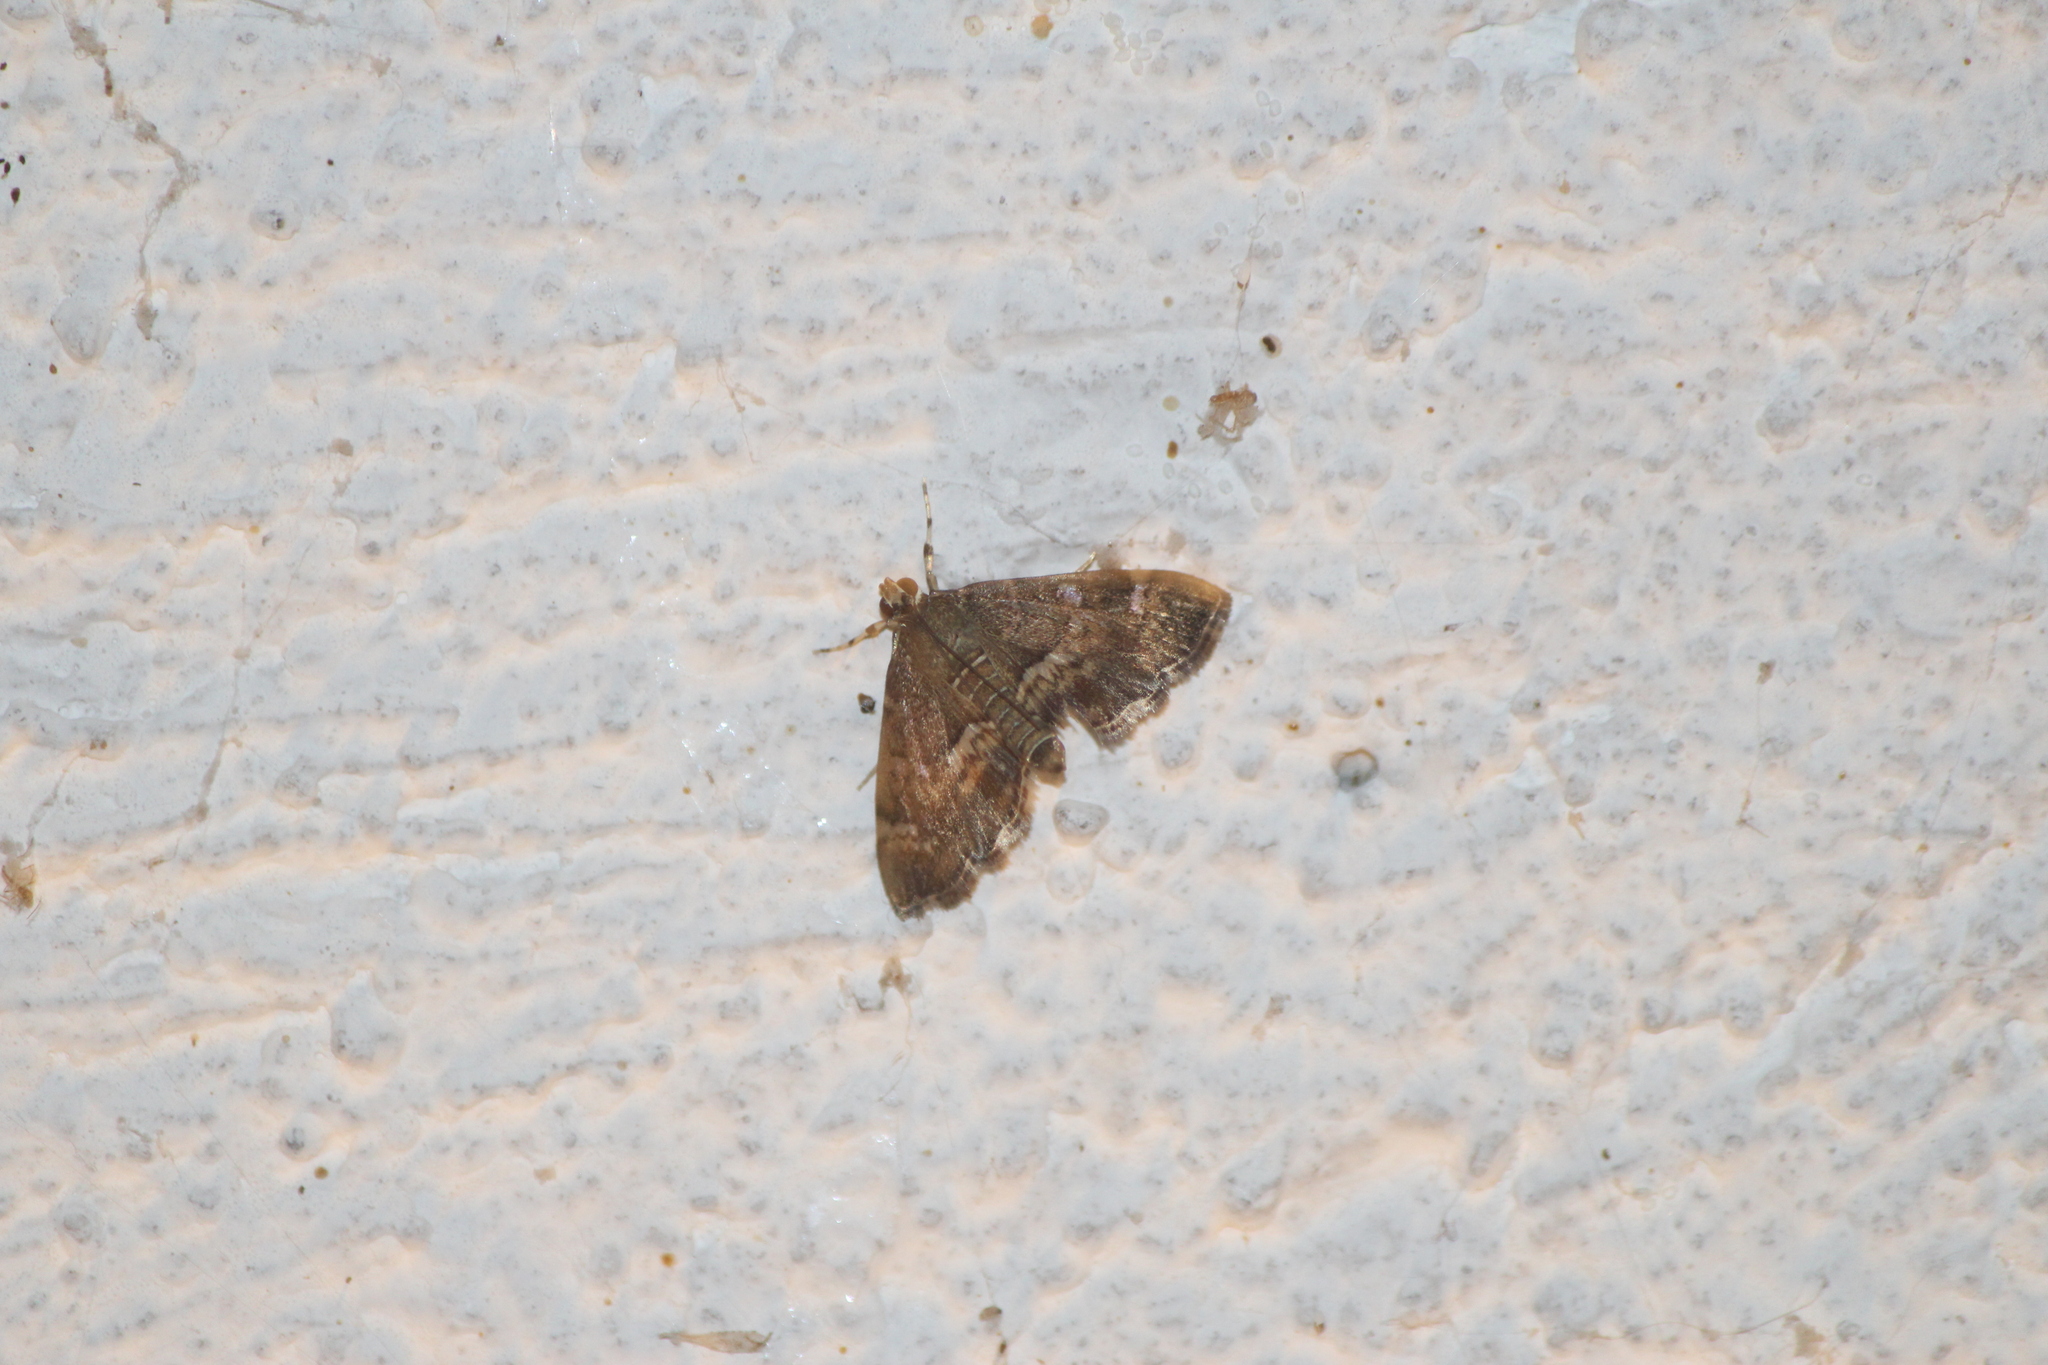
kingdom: Animalia
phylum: Arthropoda
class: Insecta
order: Lepidoptera
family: Crambidae
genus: Hymenia
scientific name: Hymenia perspectalis
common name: Spotted beet webworm
